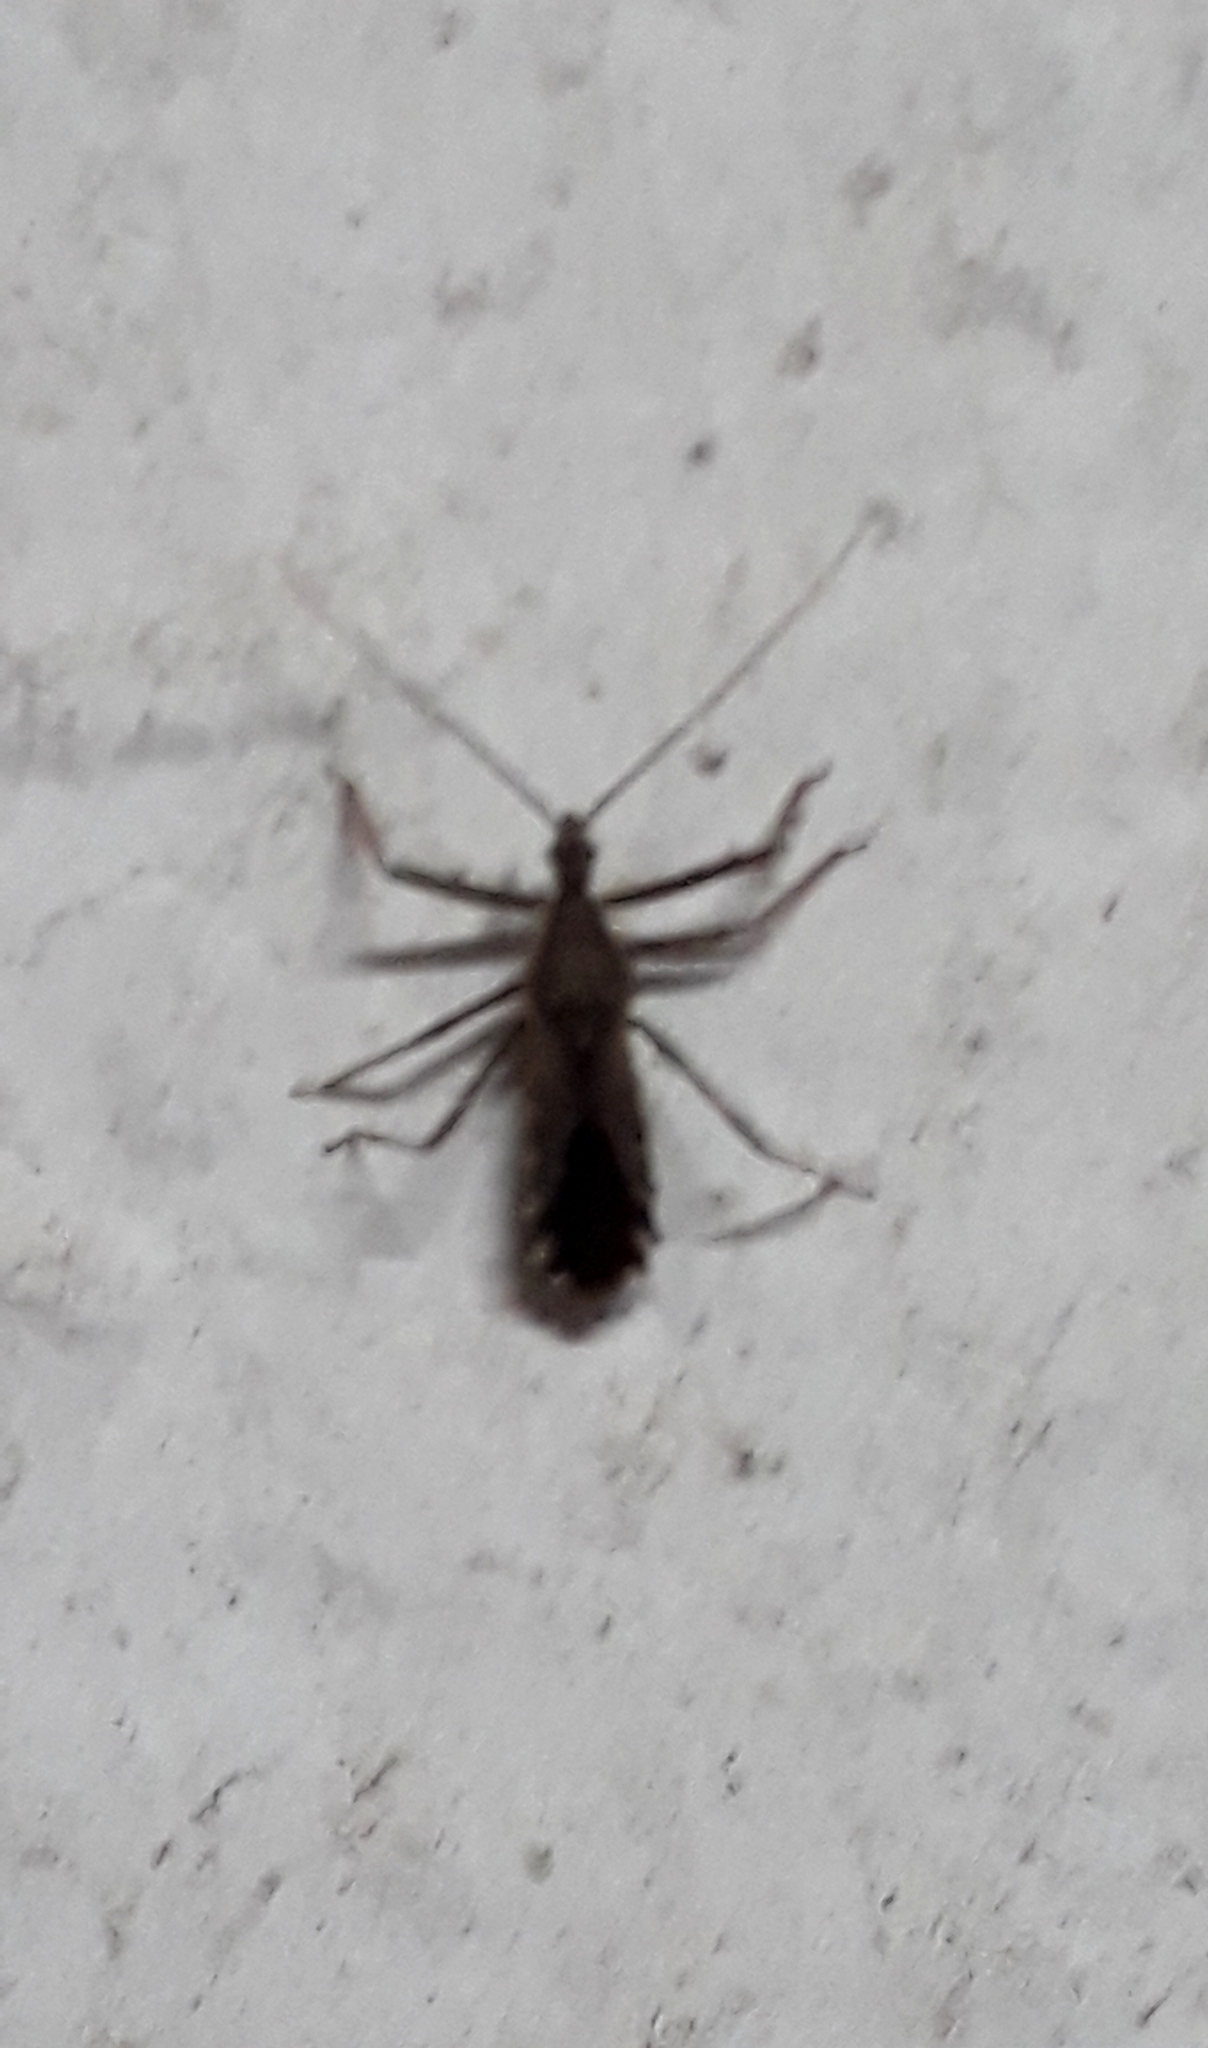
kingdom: Animalia
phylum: Arthropoda
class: Insecta
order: Hemiptera
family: Reduviidae
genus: Atrachelus
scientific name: Atrachelus cinereus
